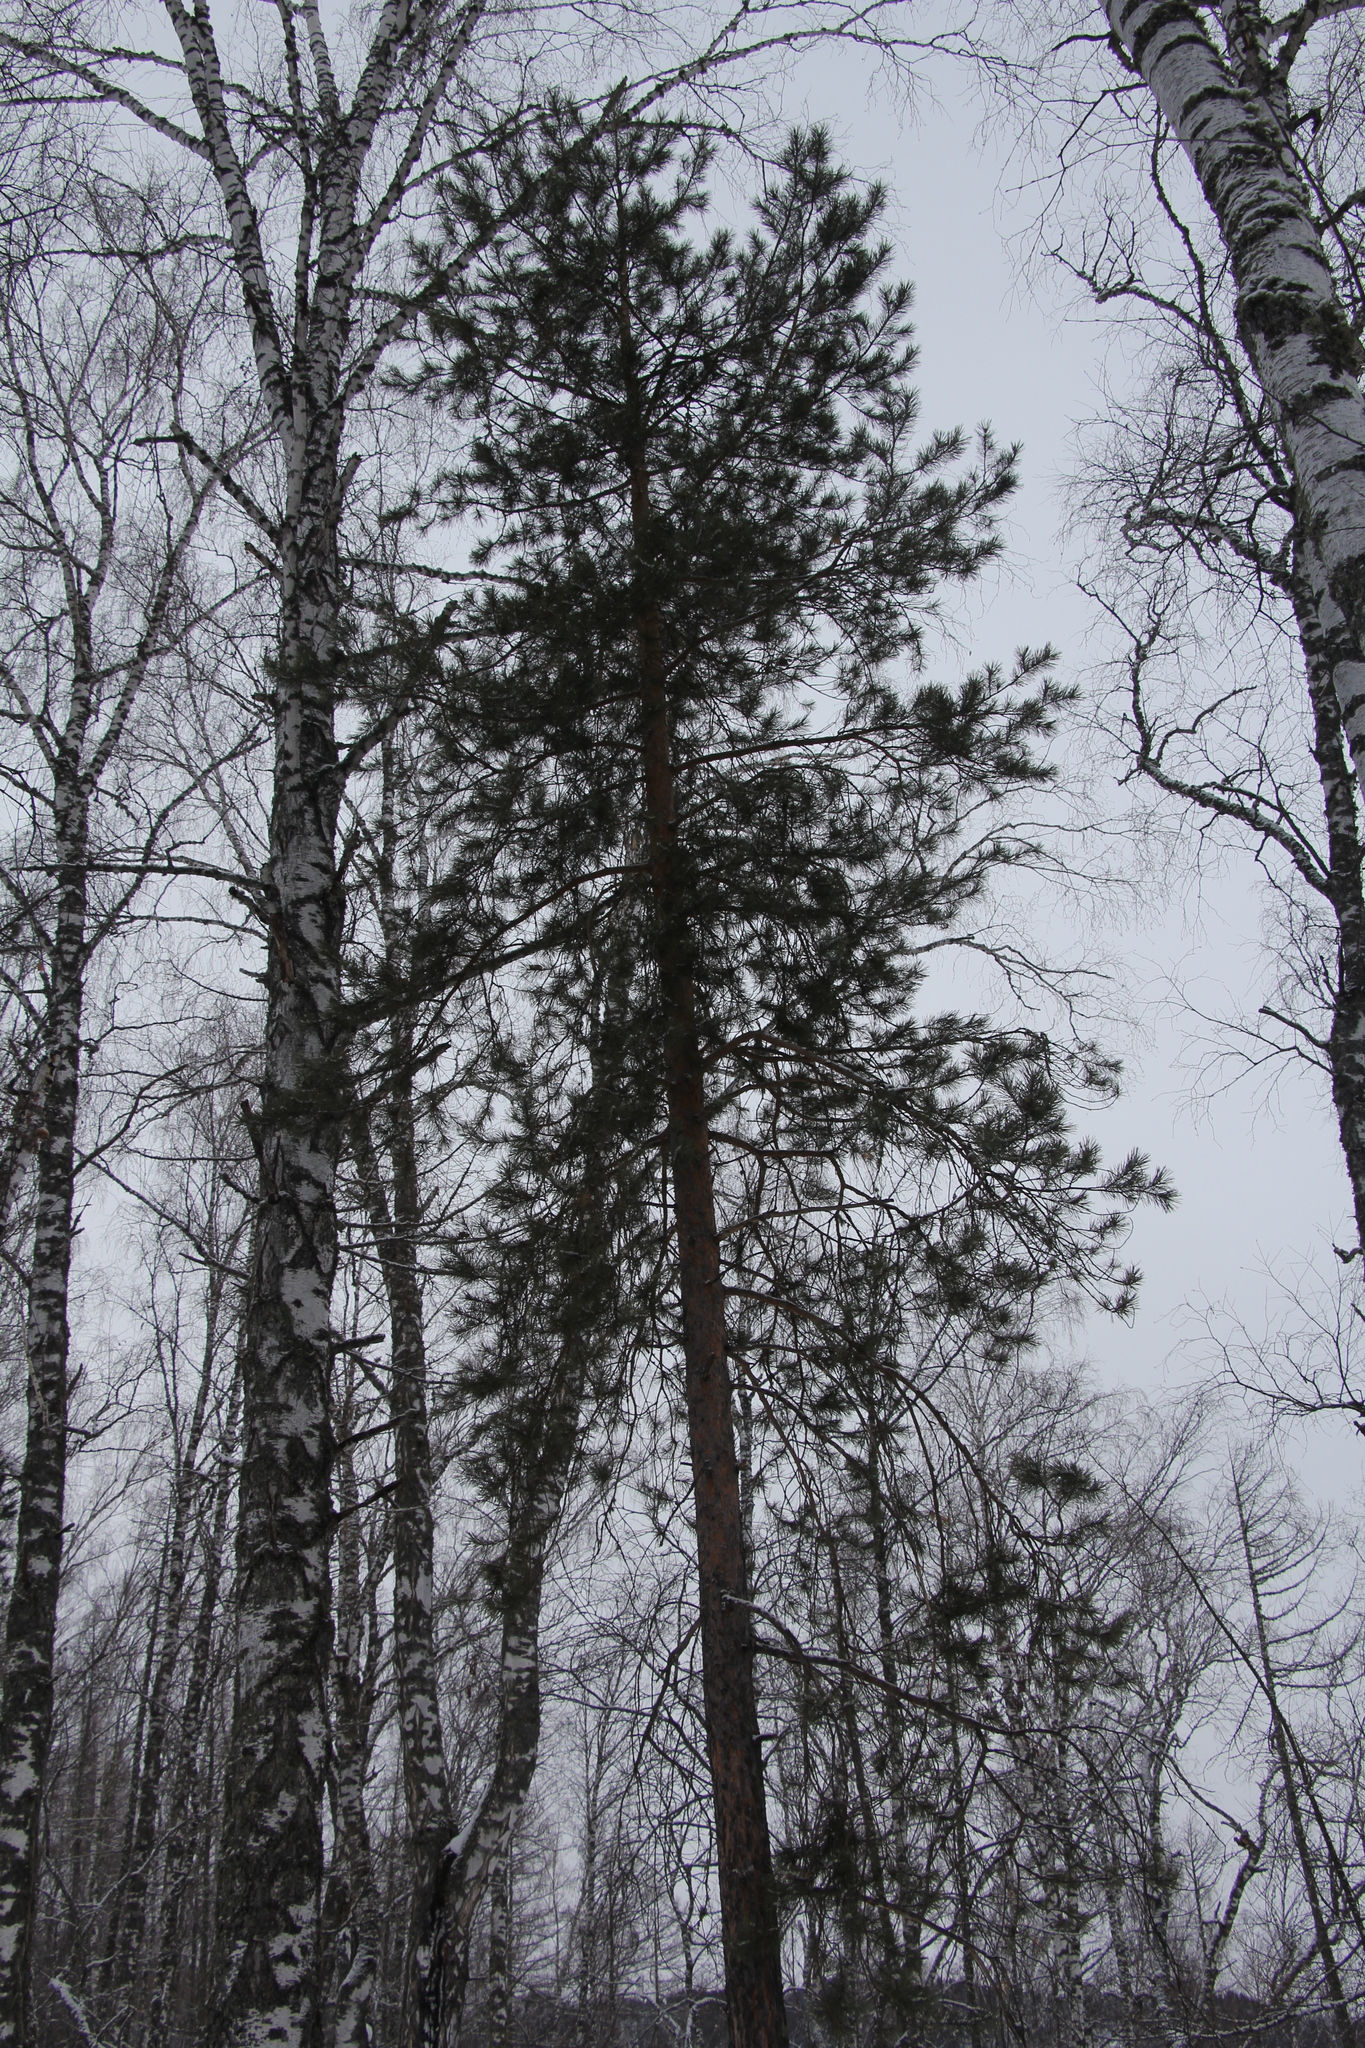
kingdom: Plantae
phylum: Tracheophyta
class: Pinopsida
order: Pinales
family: Pinaceae
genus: Pinus
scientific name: Pinus sylvestris
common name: Scots pine
